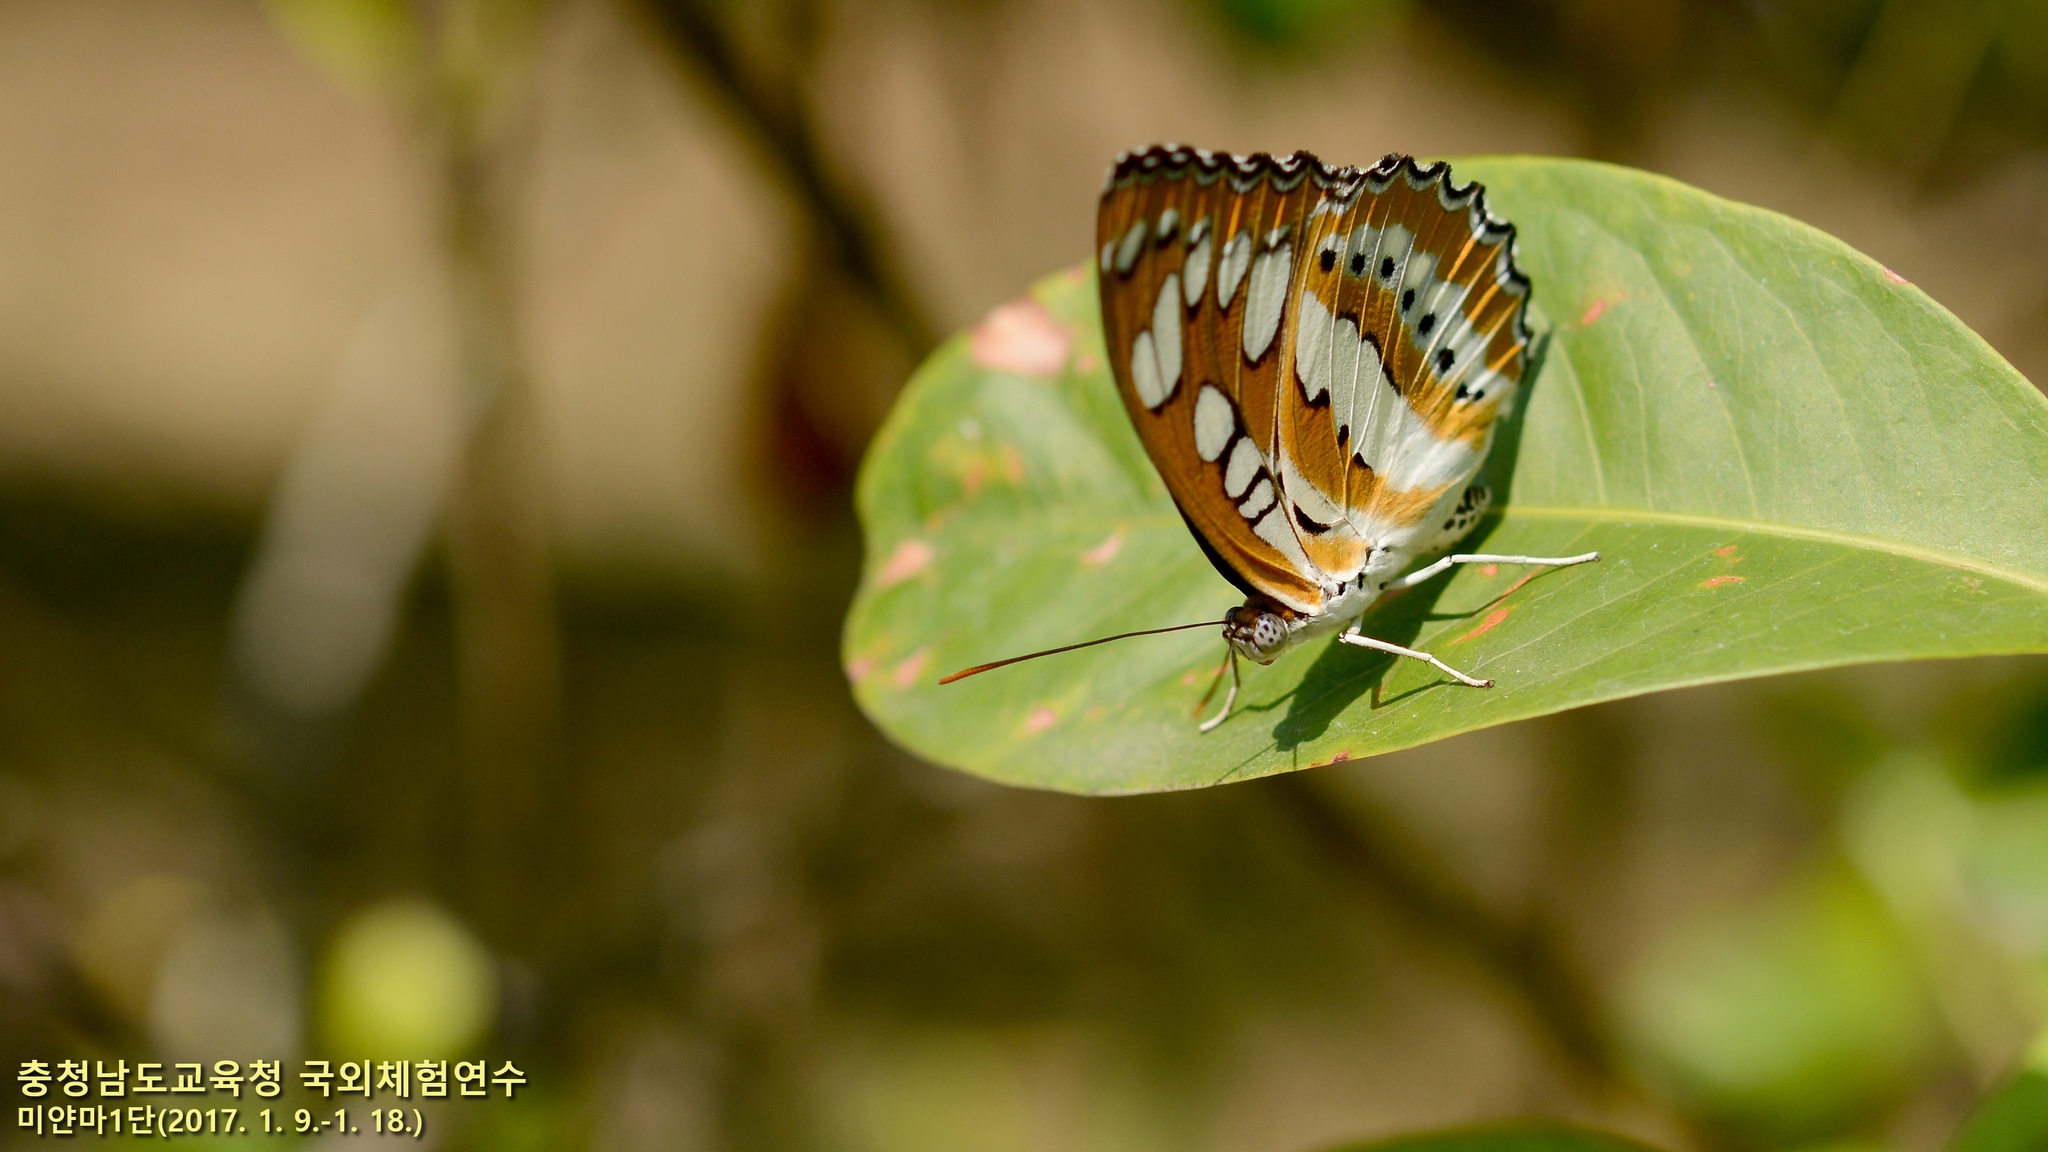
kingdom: Animalia
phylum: Arthropoda
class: Insecta
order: Lepidoptera
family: Nymphalidae
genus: Parathyma
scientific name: Parathyma perius
